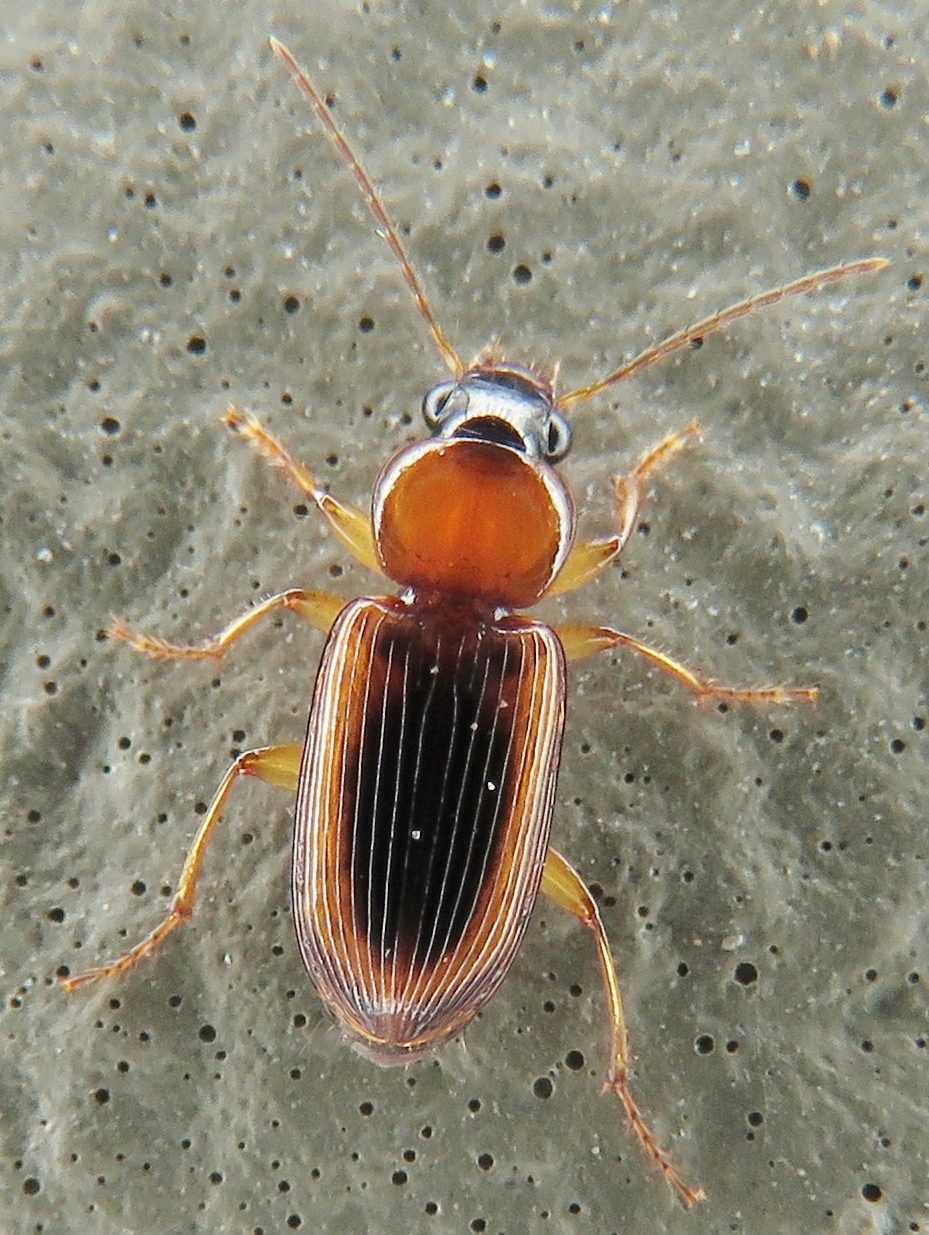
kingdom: Animalia
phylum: Arthropoda
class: Insecta
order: Coleoptera
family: Carabidae
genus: Stenolophus
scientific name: Stenolophus dissimilis
